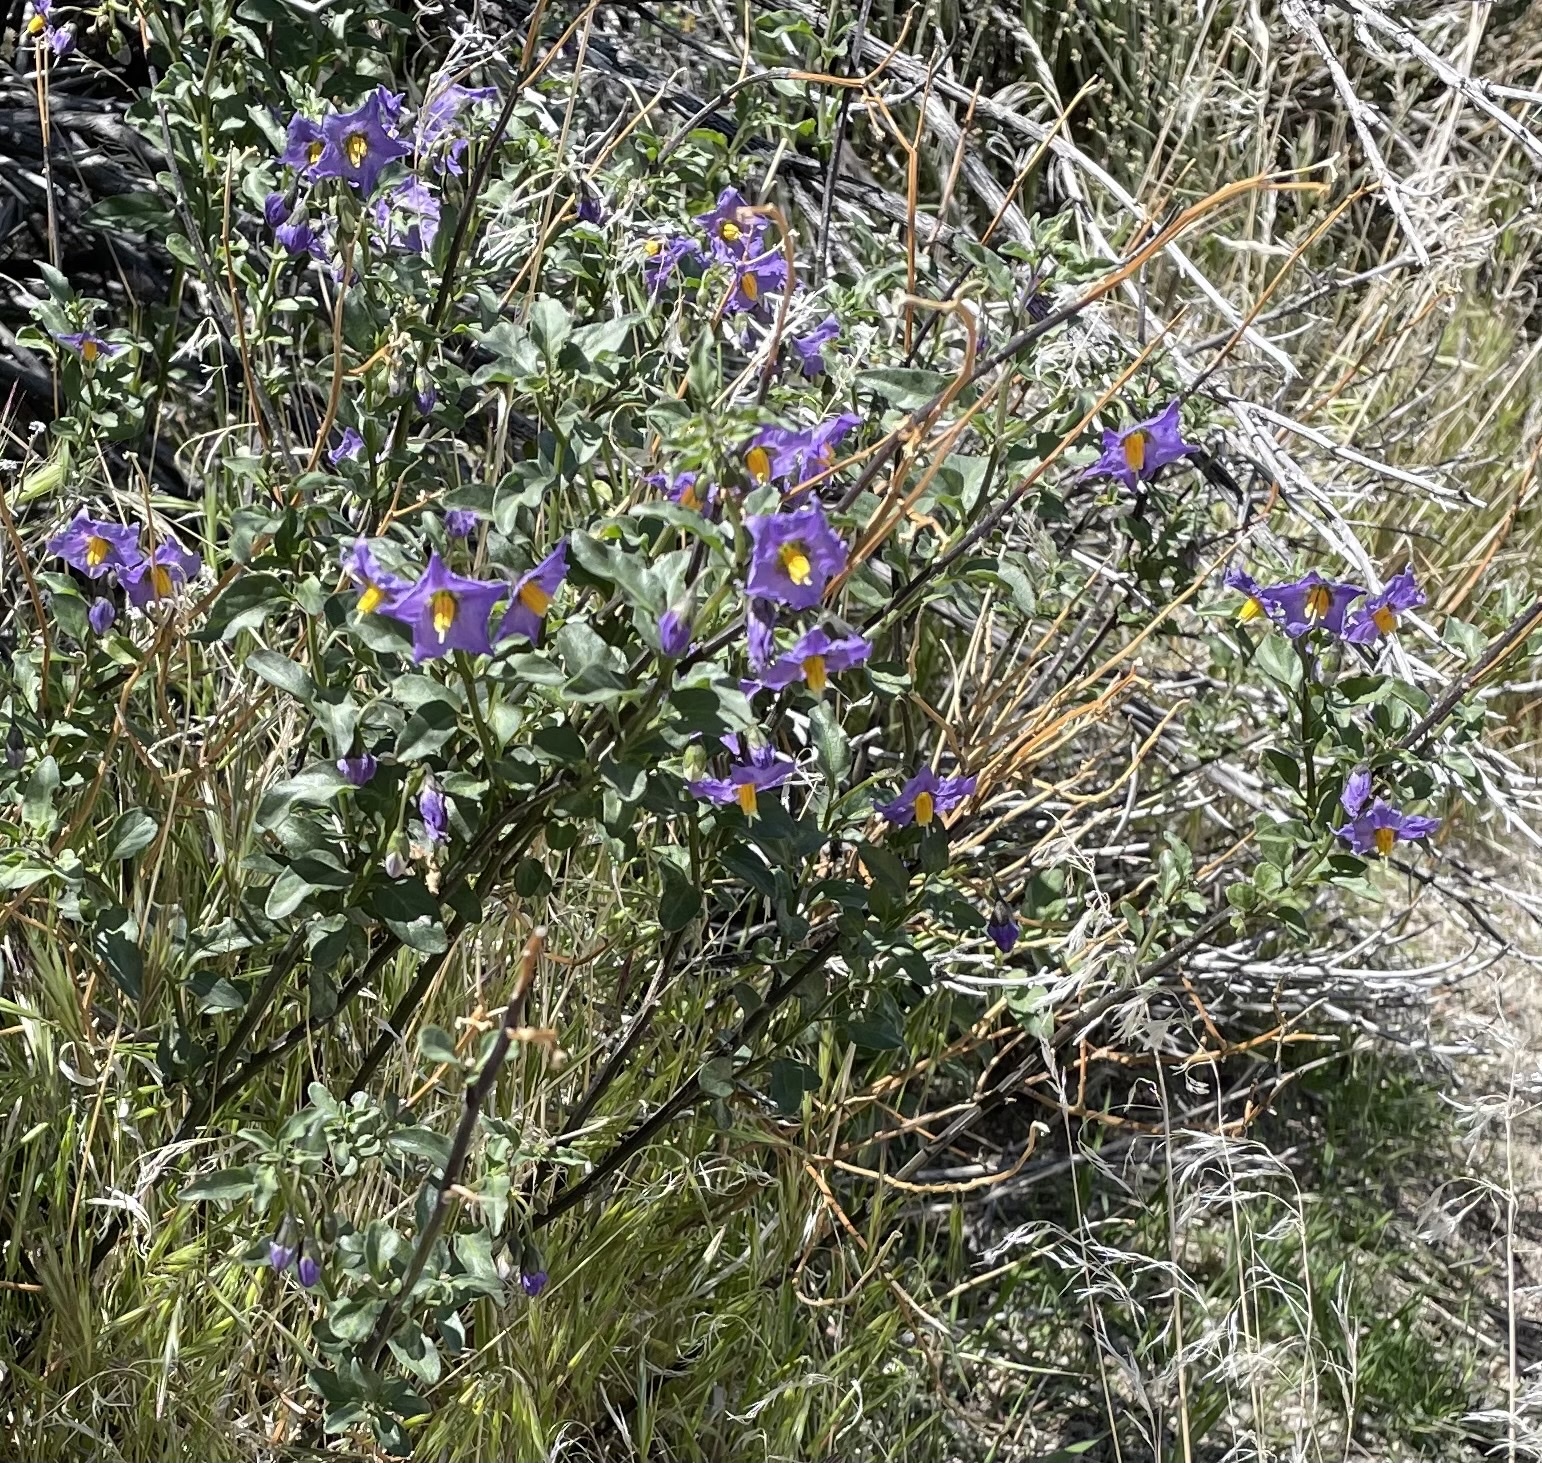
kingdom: Plantae
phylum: Tracheophyta
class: Magnoliopsida
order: Solanales
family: Solanaceae
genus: Solanum
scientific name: Solanum umbelliferum
